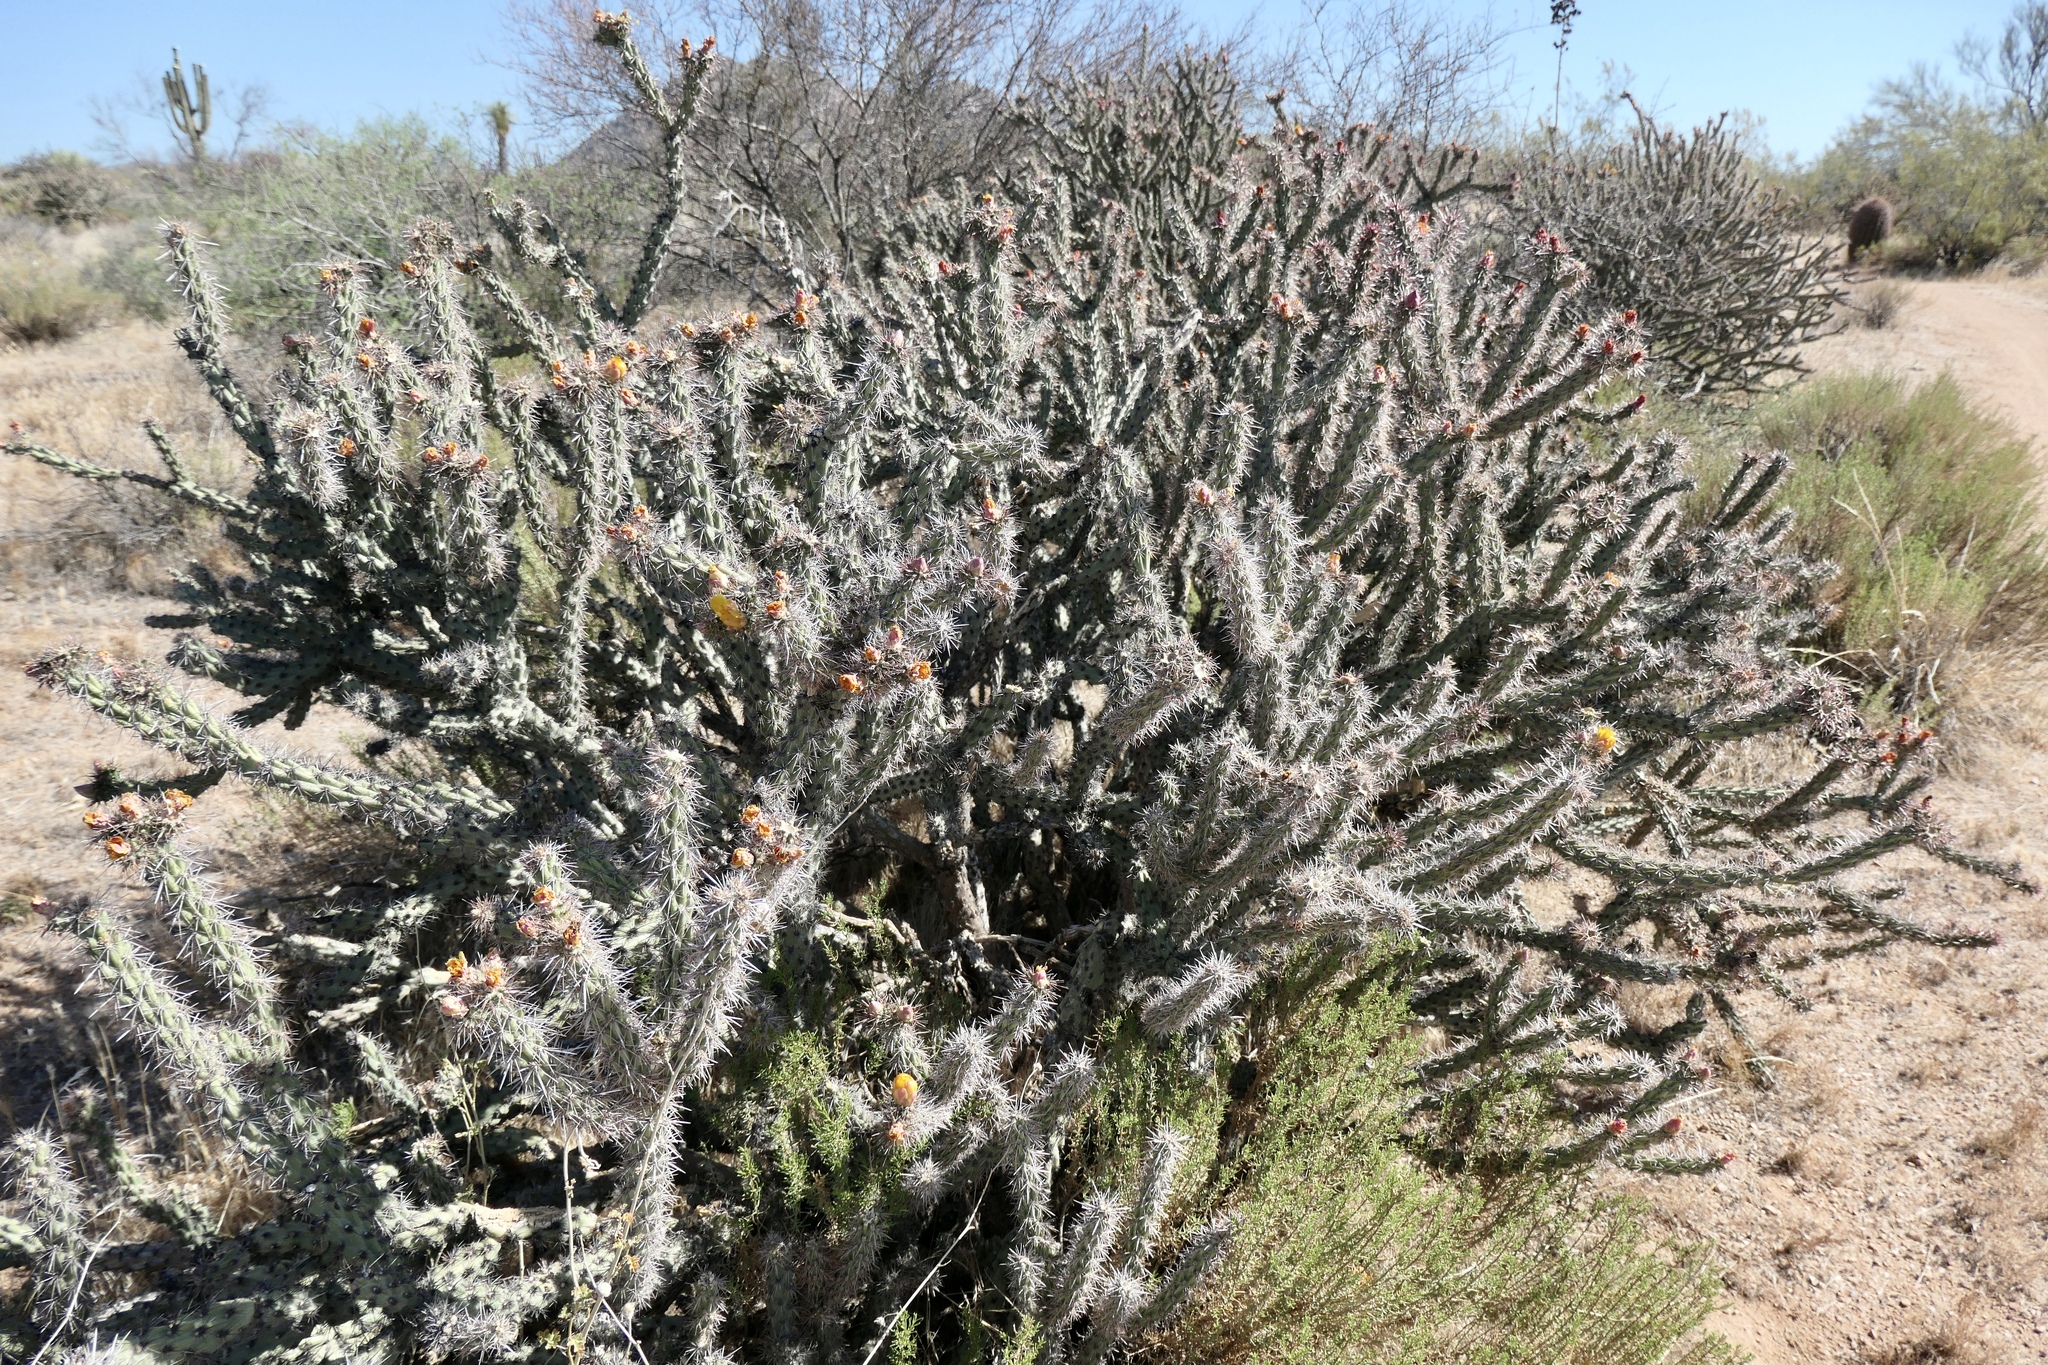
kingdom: Plantae
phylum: Tracheophyta
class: Magnoliopsida
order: Caryophyllales
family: Cactaceae
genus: Cylindropuntia
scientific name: Cylindropuntia acanthocarpa
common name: Buckhorn cholla
